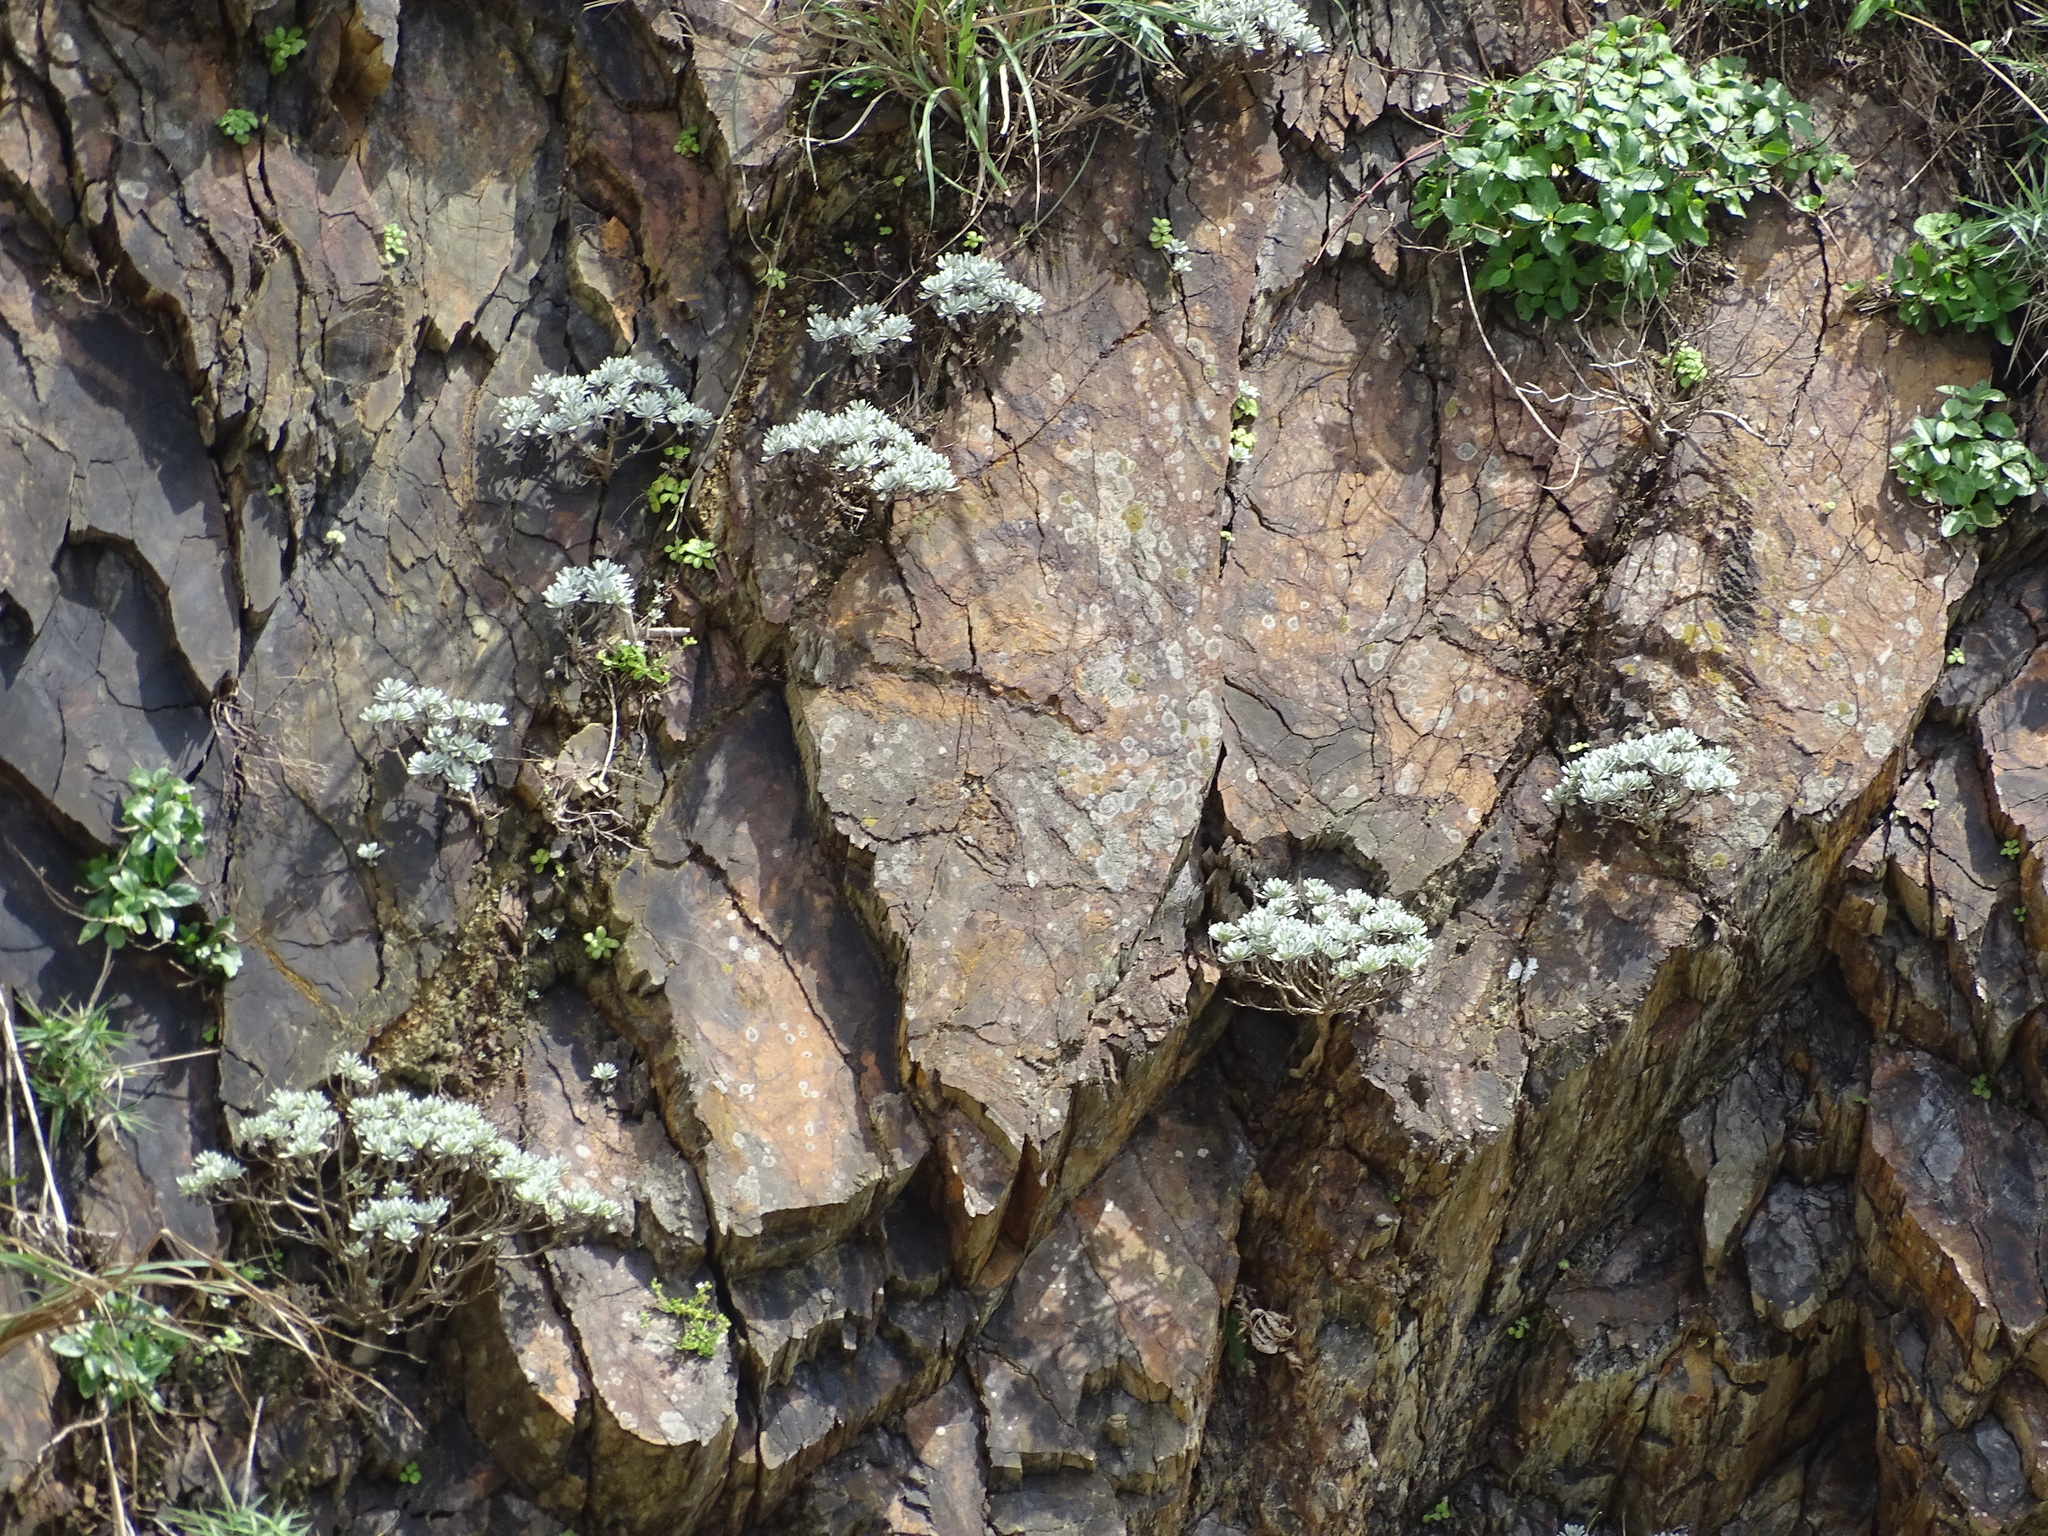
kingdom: Plantae
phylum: Tracheophyta
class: Magnoliopsida
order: Asterales
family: Asteraceae
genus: Crossostephium
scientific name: Crossostephium chinense
